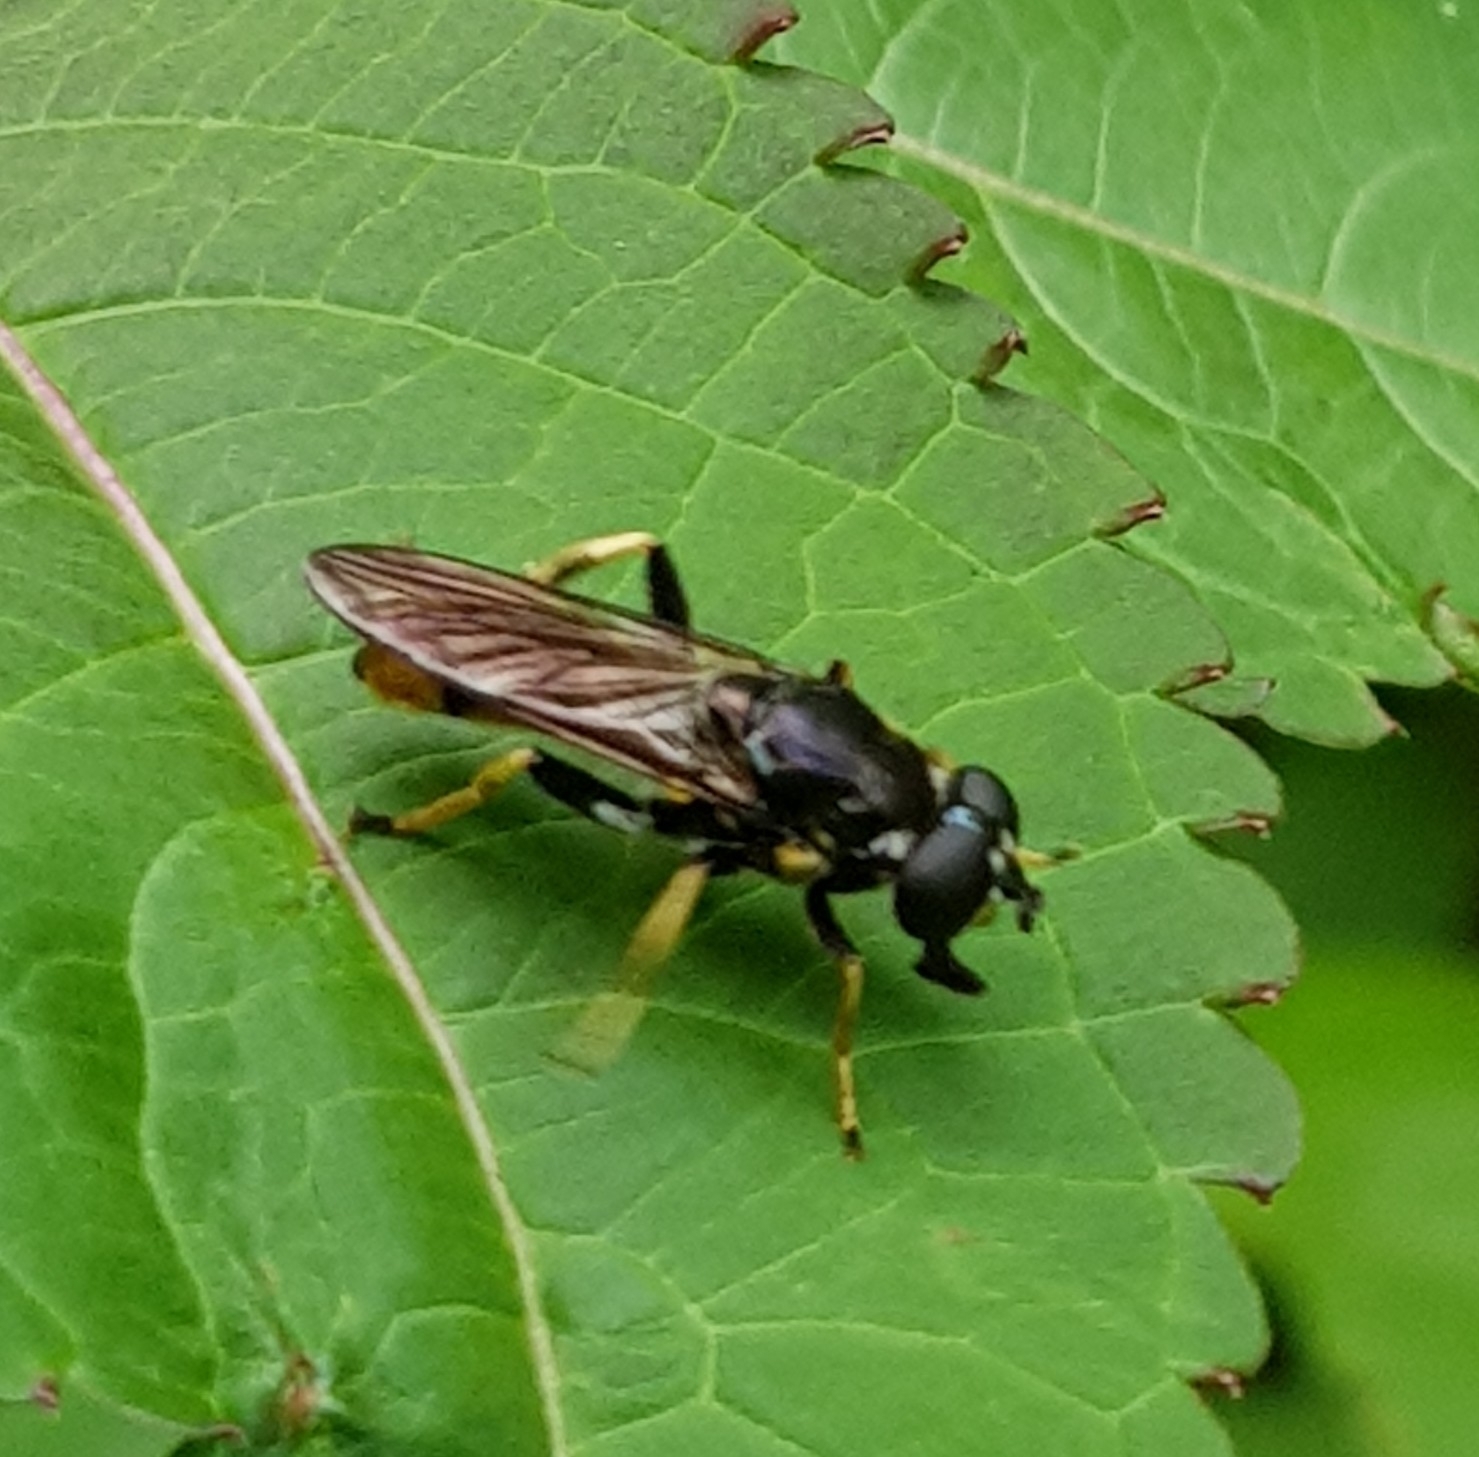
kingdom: Animalia
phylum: Arthropoda
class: Insecta
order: Diptera
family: Syrphidae
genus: Xylota
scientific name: Xylota sylvarum
